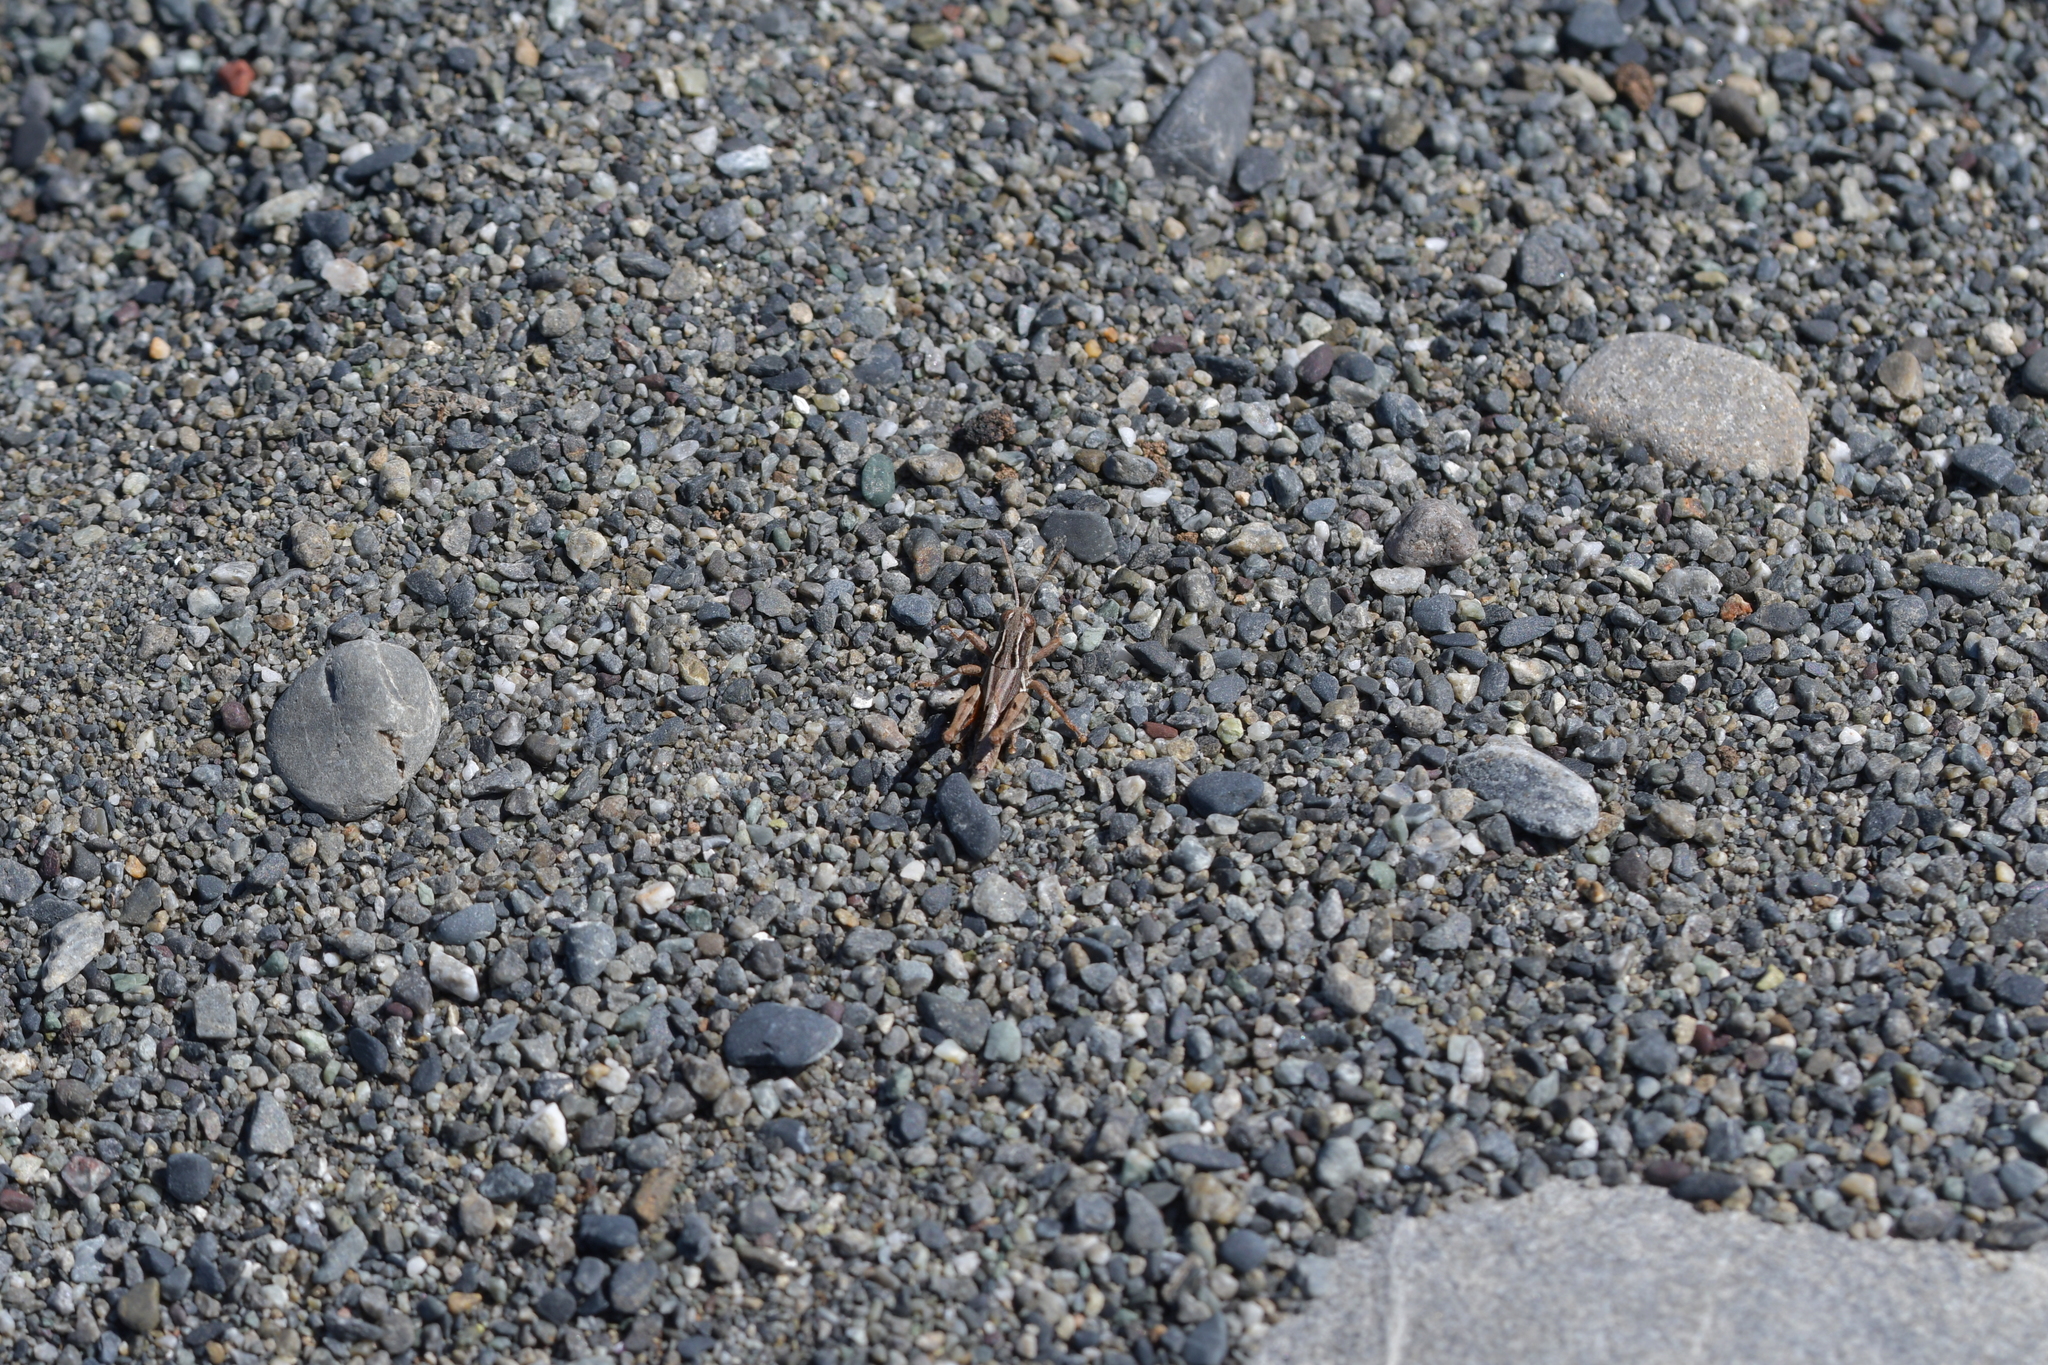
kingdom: Animalia
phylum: Arthropoda
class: Insecta
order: Orthoptera
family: Acrididae
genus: Phaulacridium
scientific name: Phaulacridium marginale
